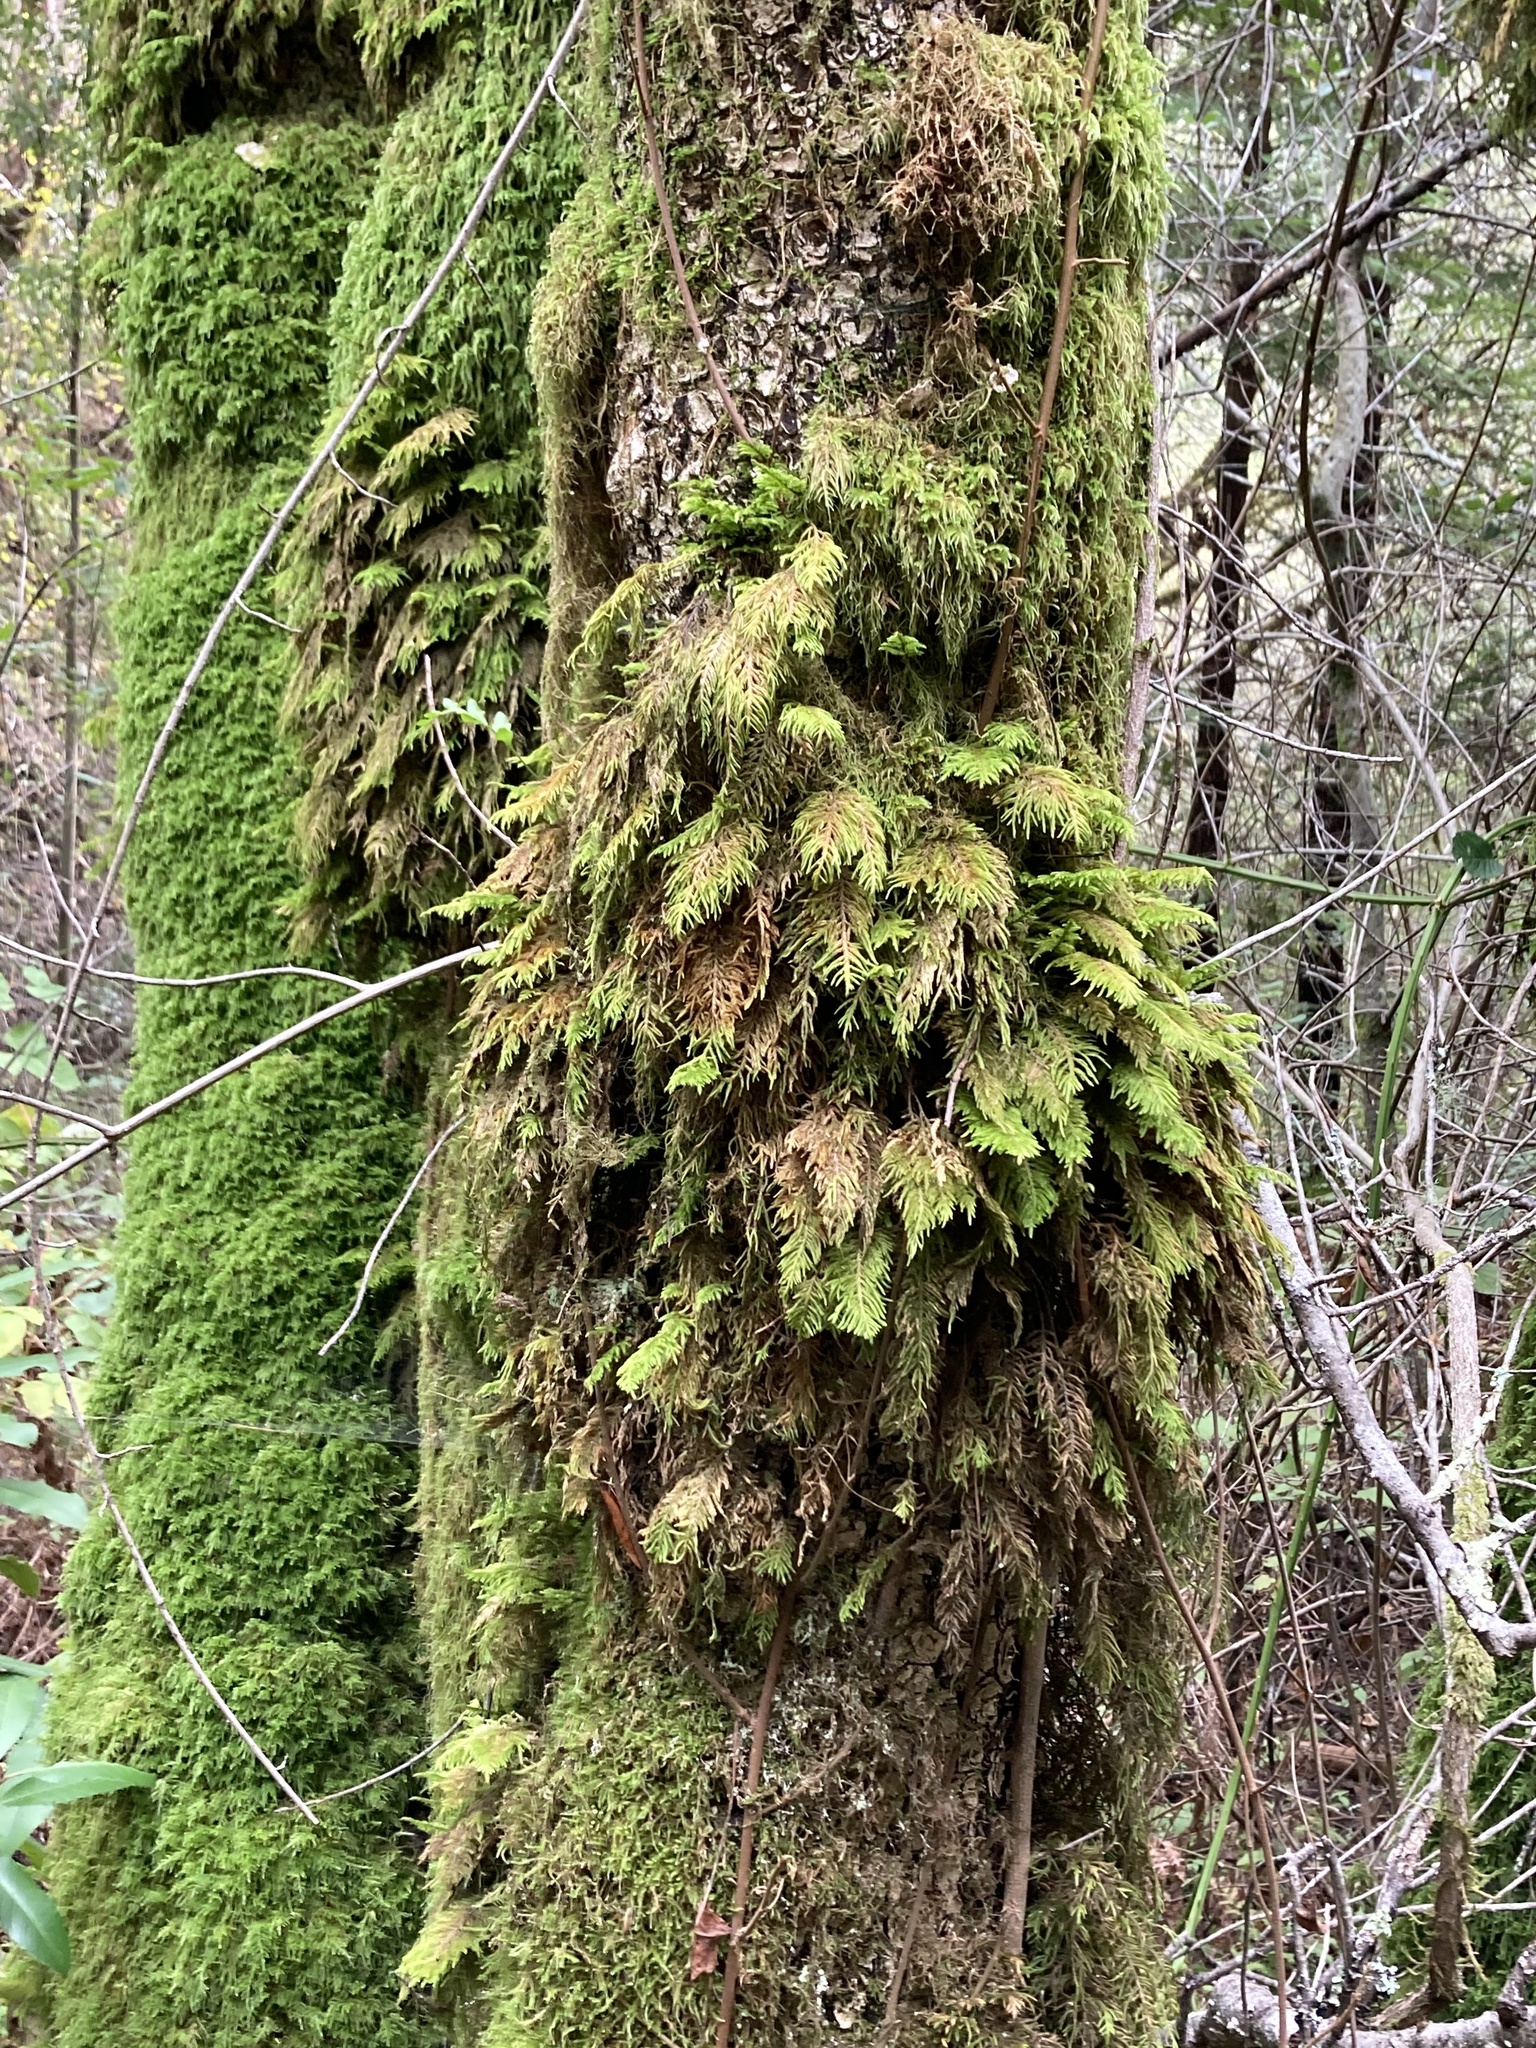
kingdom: Plantae
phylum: Bryophyta
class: Bryopsida
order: Hypnales
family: Cryphaeaceae
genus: Dendroalsia
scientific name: Dendroalsia abietina
